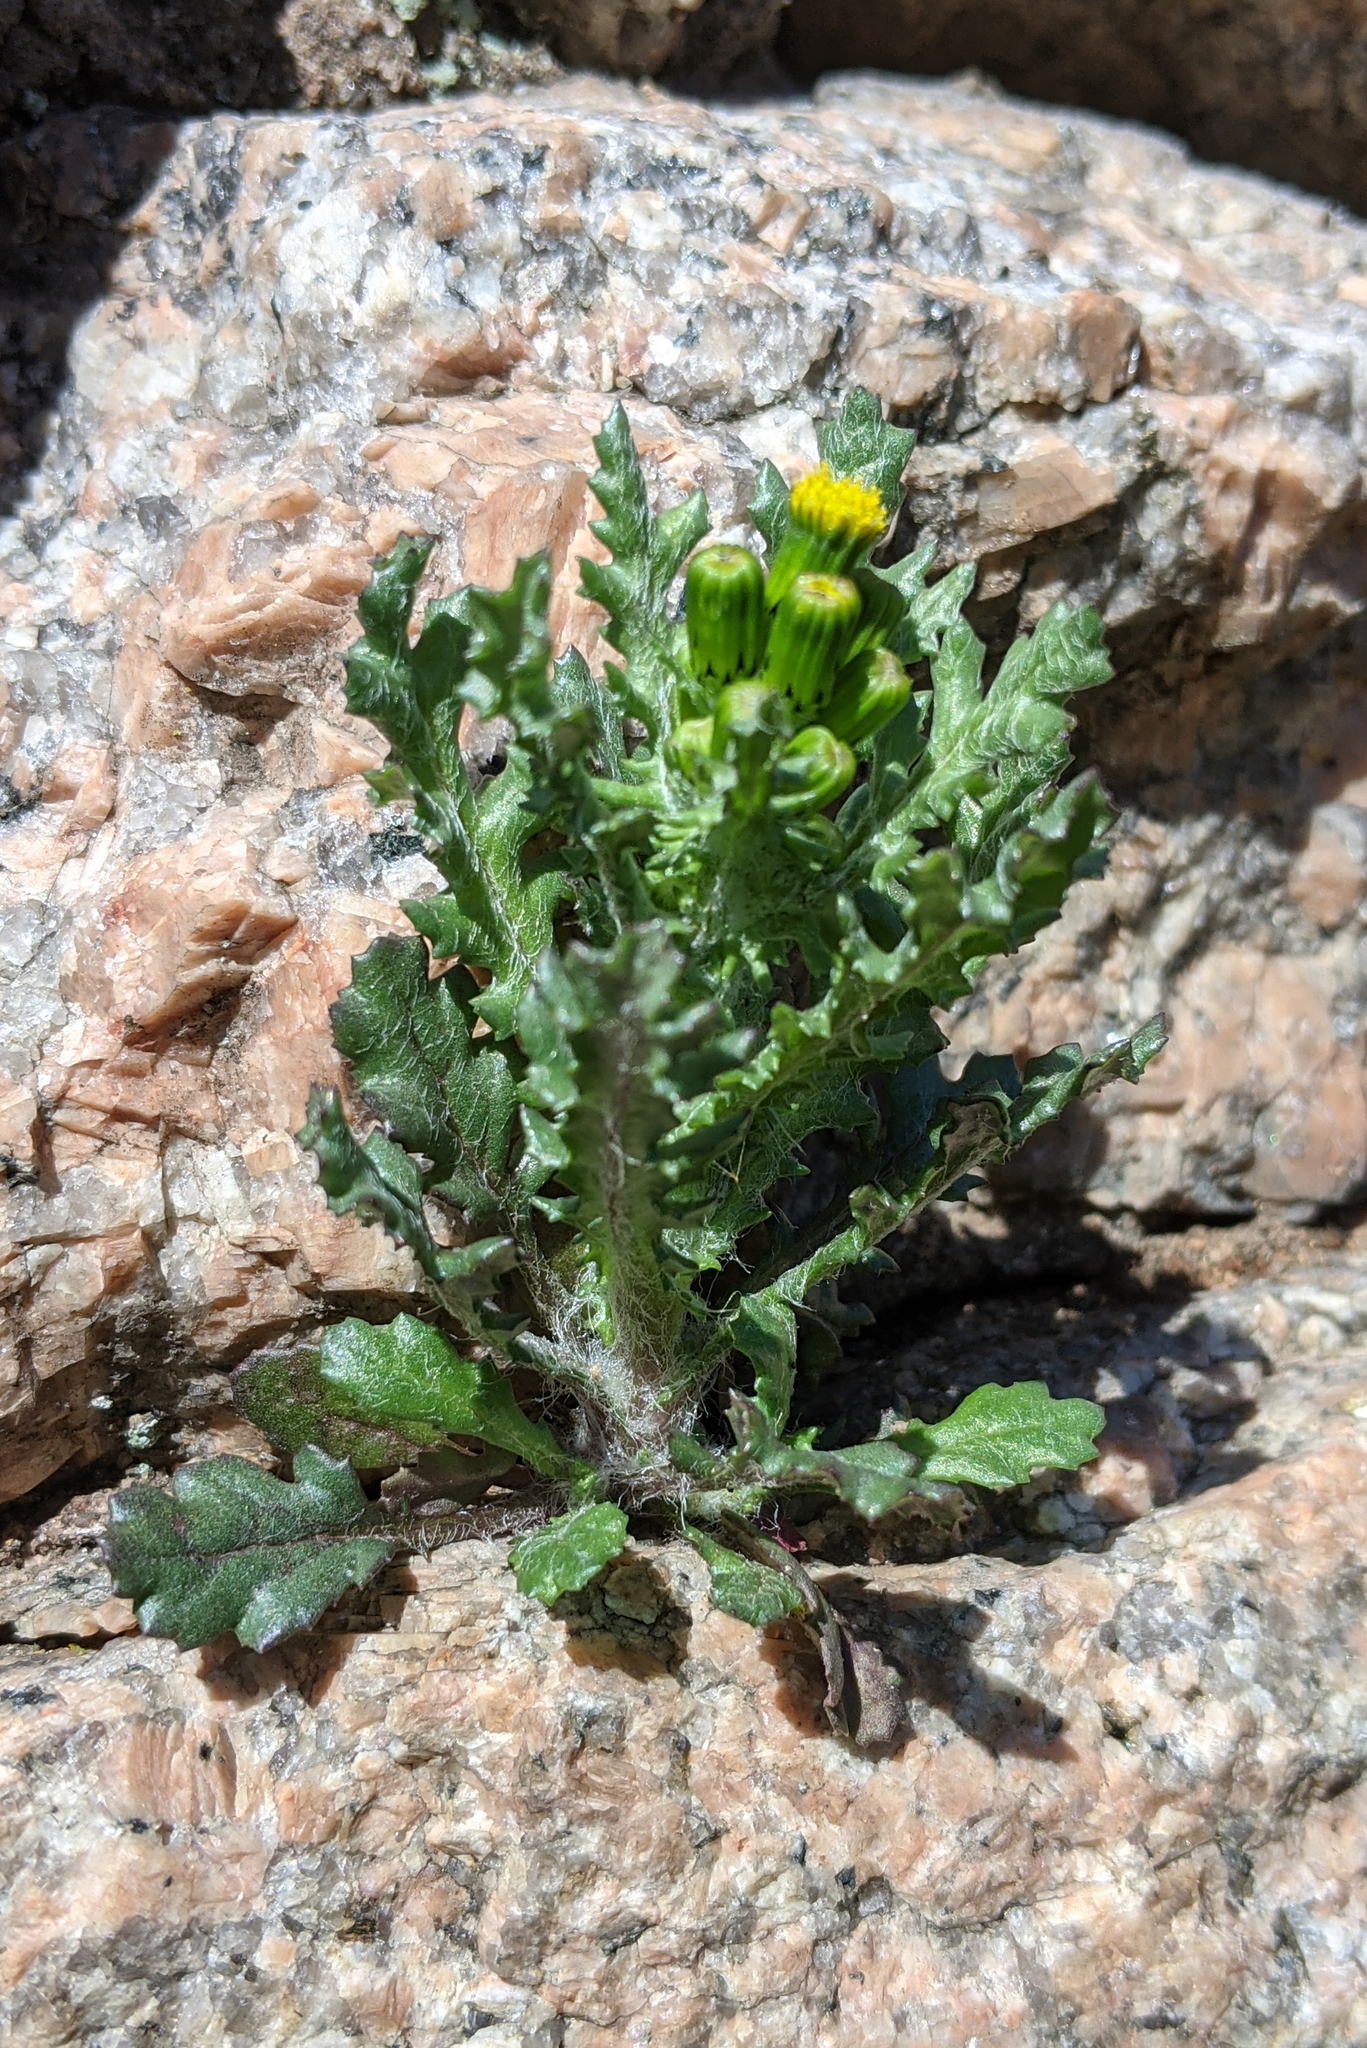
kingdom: Plantae
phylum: Tracheophyta
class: Magnoliopsida
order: Asterales
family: Asteraceae
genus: Senecio
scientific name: Senecio vulgaris
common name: Old-man-in-the-spring
